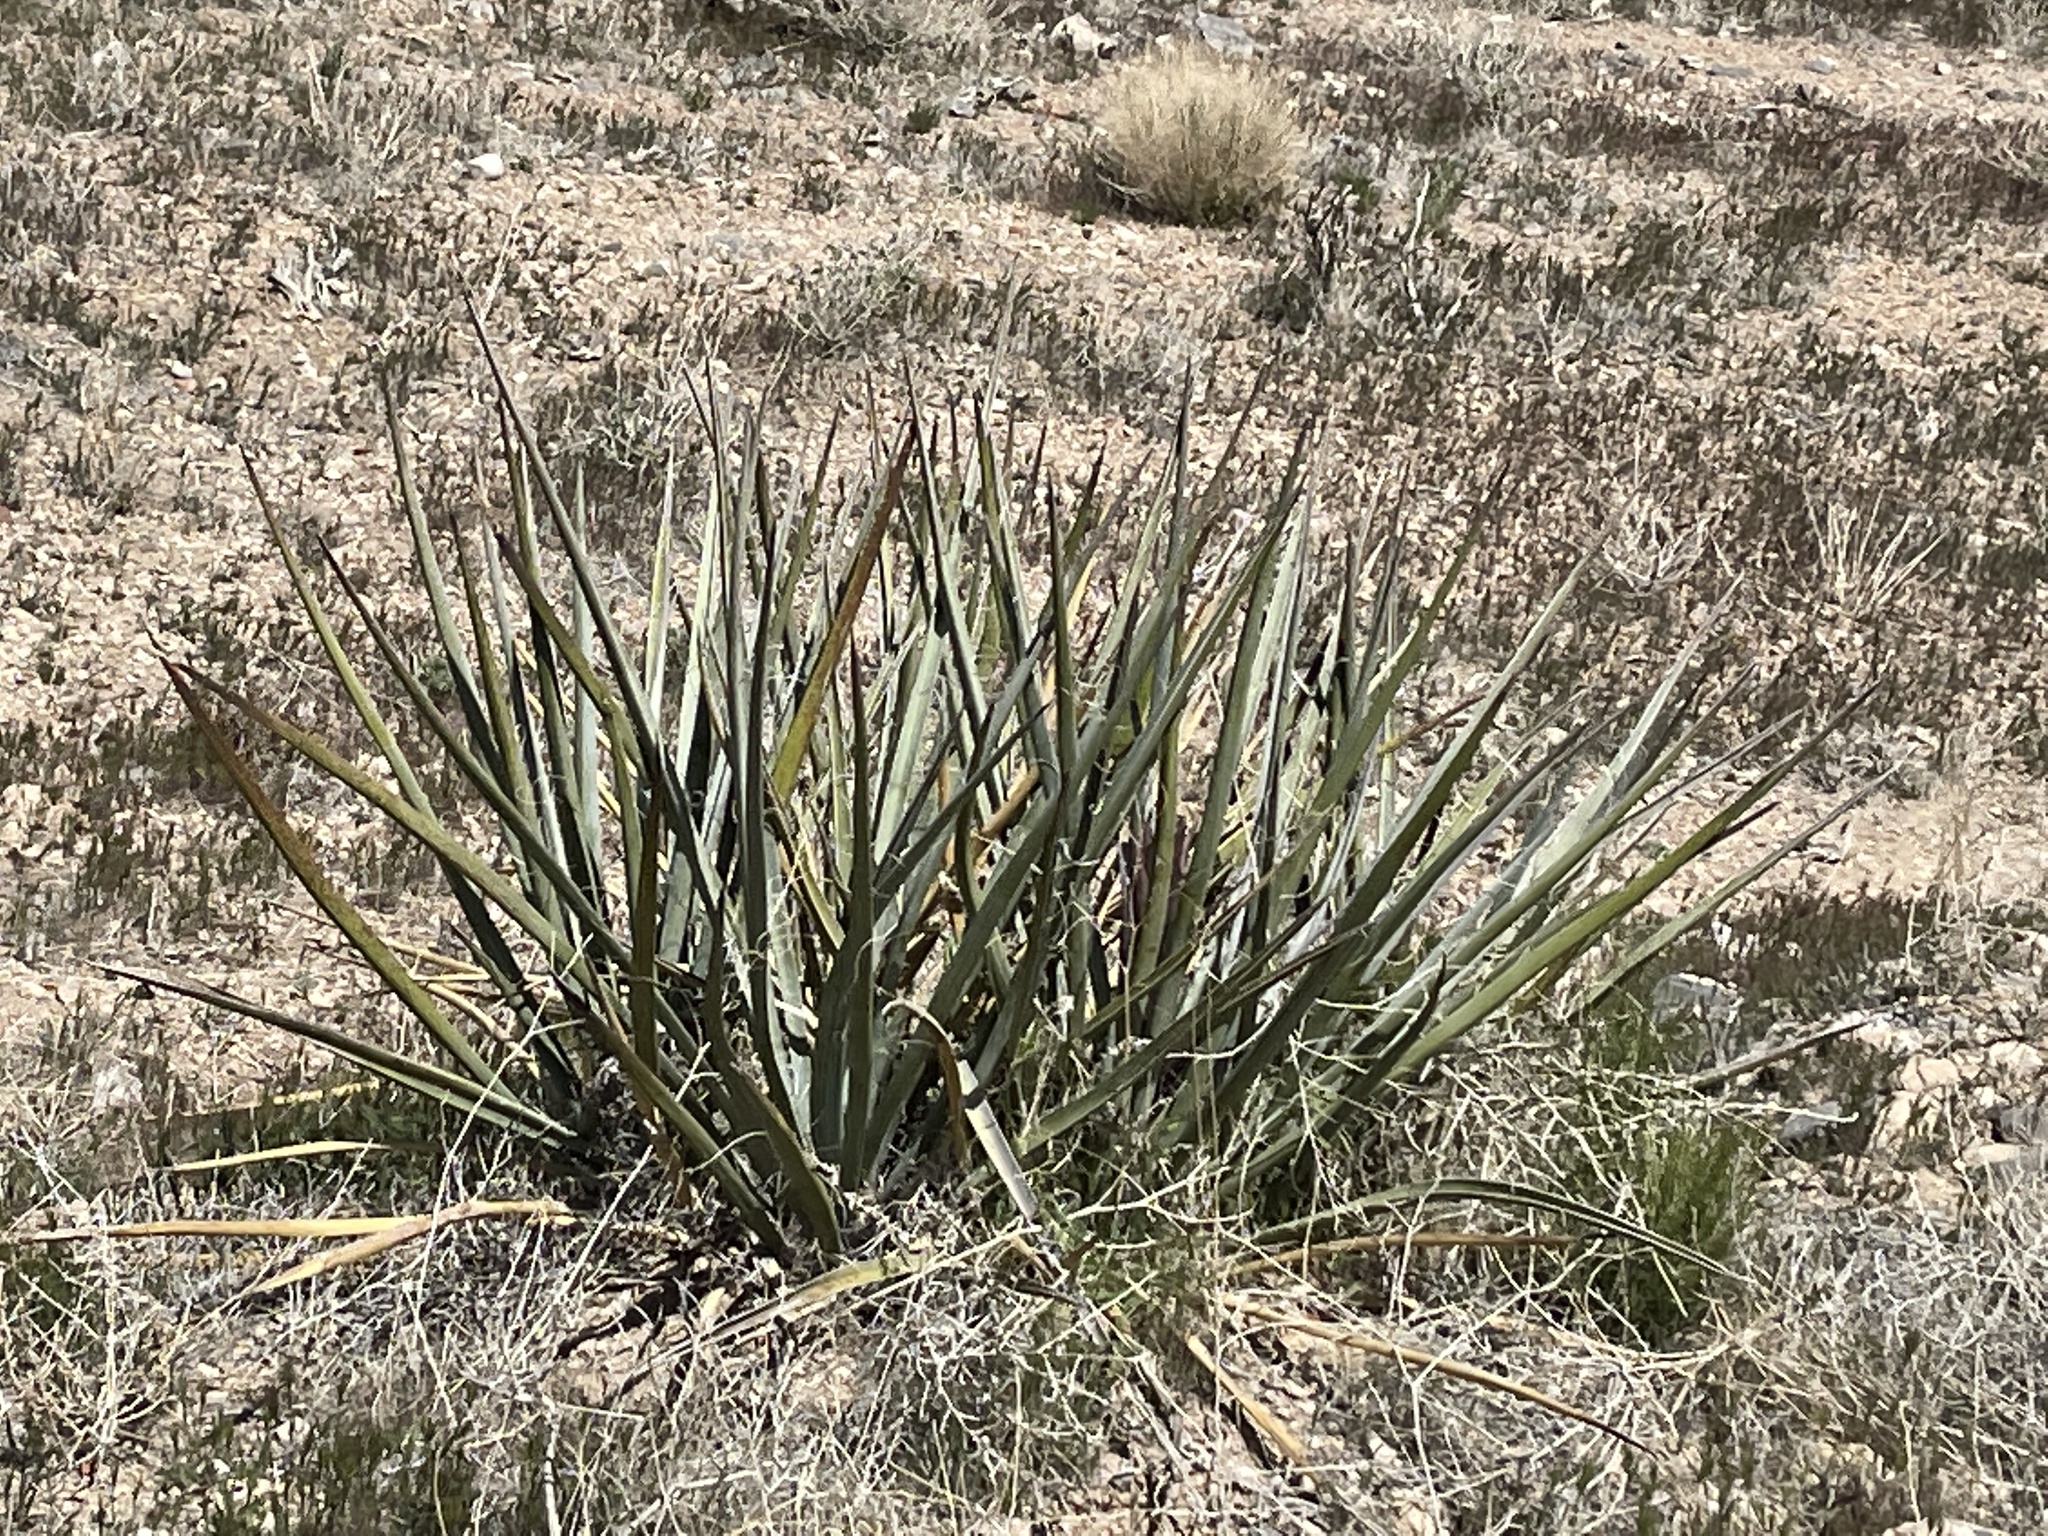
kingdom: Plantae
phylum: Tracheophyta
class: Liliopsida
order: Asparagales
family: Asparagaceae
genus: Yucca
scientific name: Yucca baccata
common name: Banana yucca
